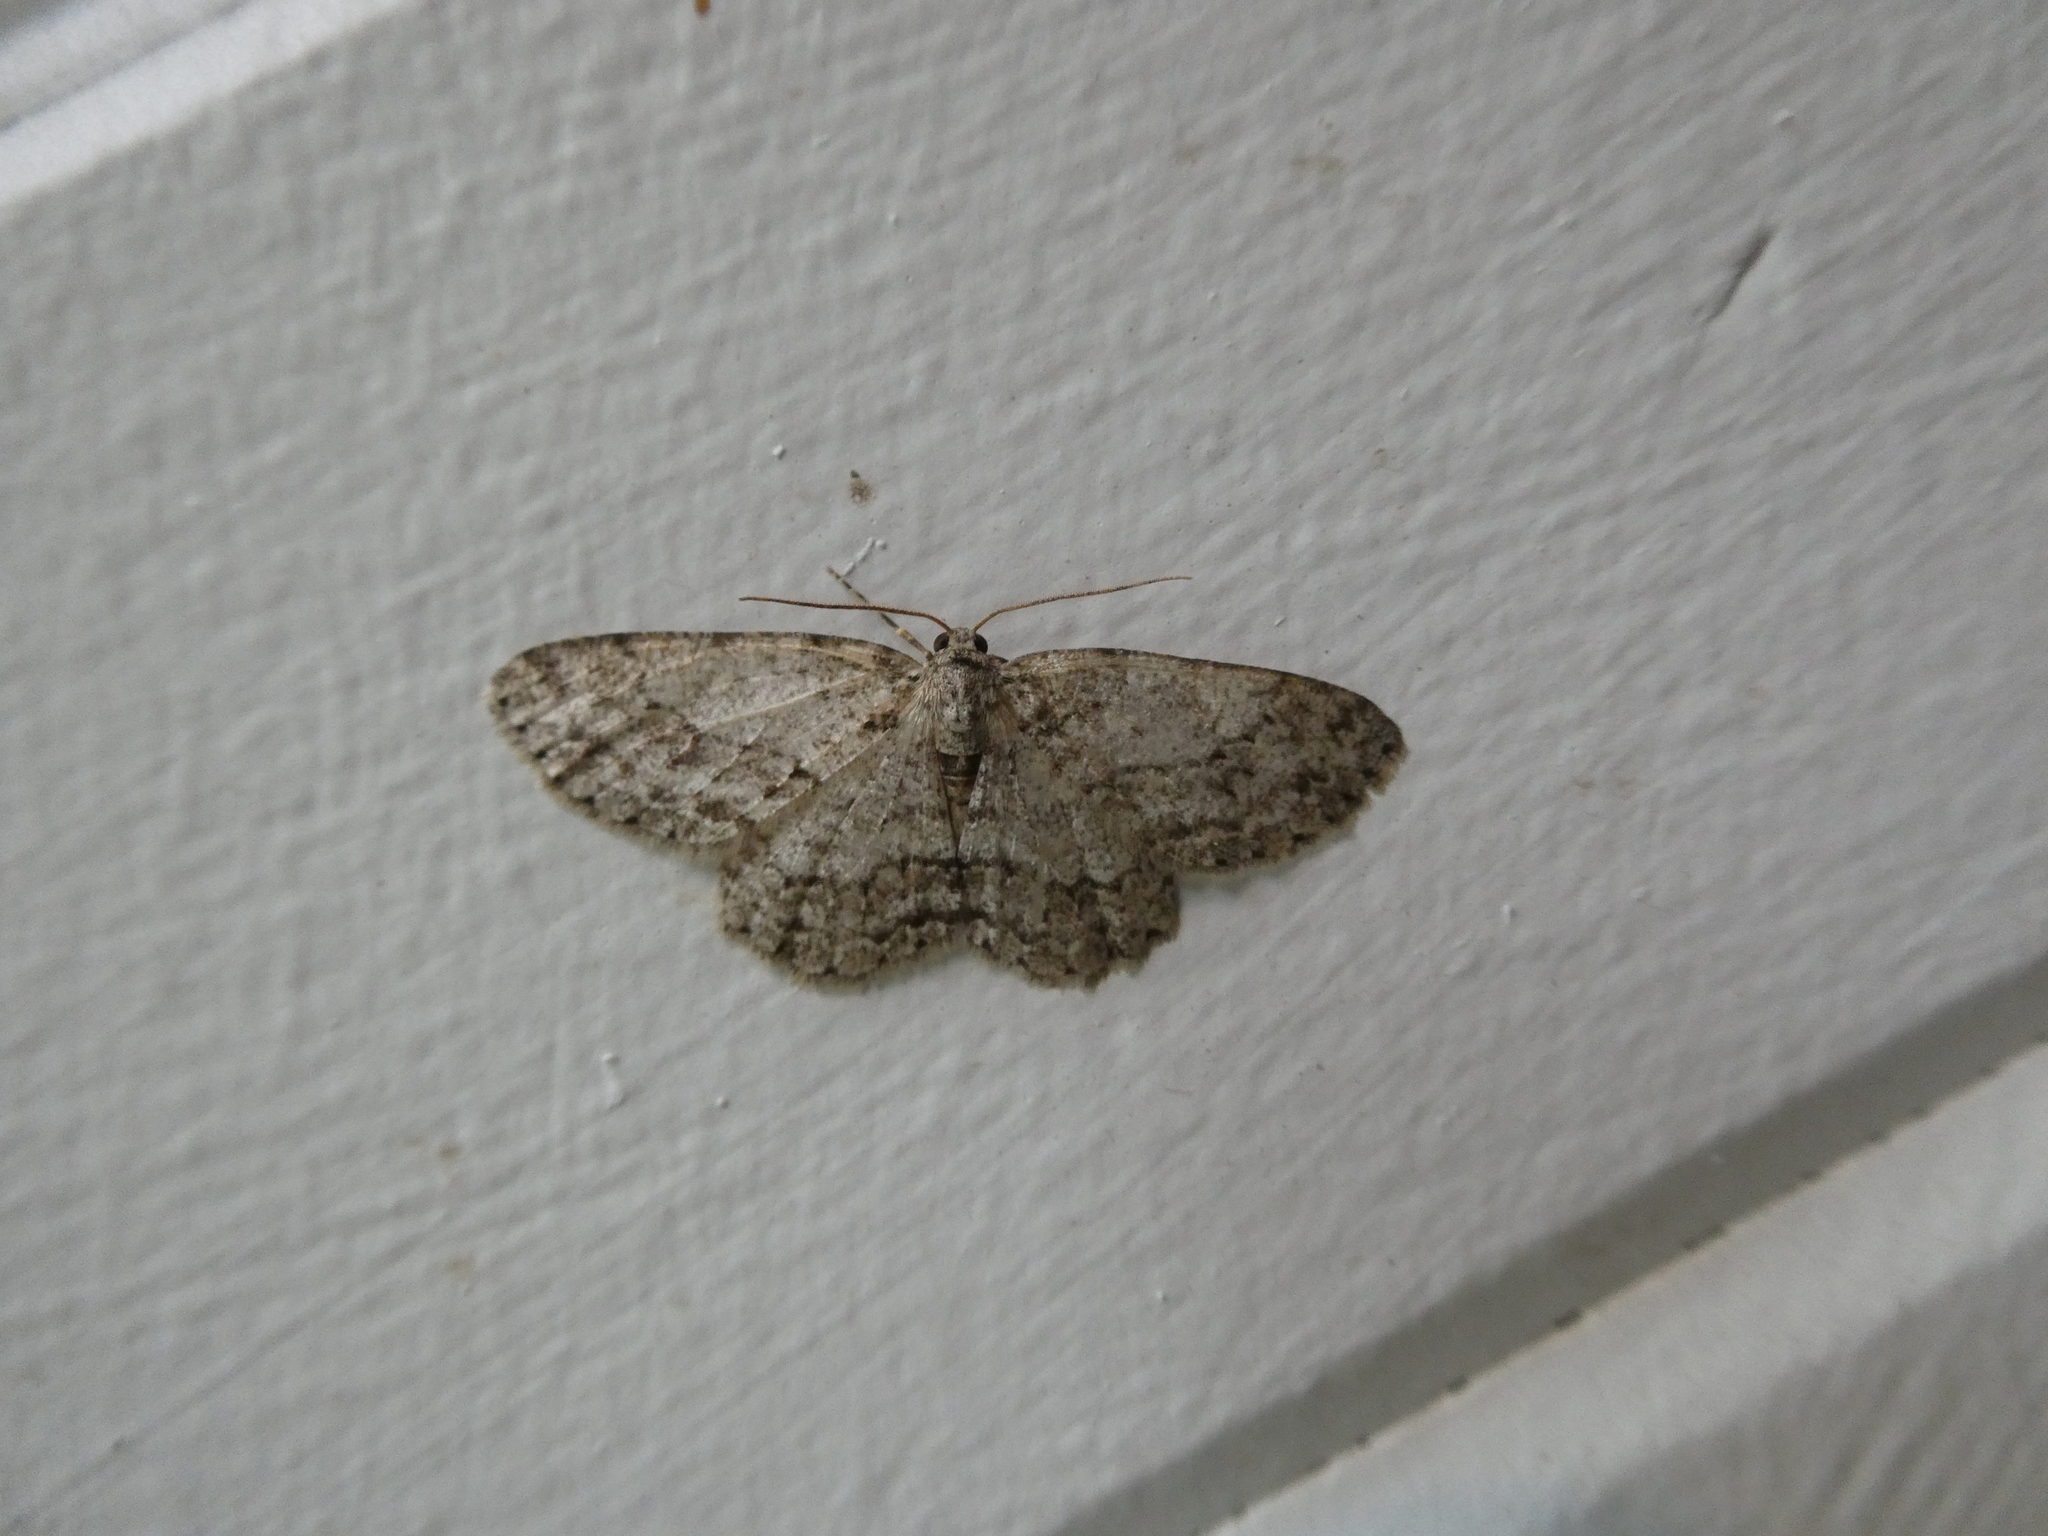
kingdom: Animalia
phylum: Arthropoda
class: Insecta
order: Lepidoptera
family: Geometridae
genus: Ectropis
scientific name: Ectropis crepuscularia
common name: Engrailed
